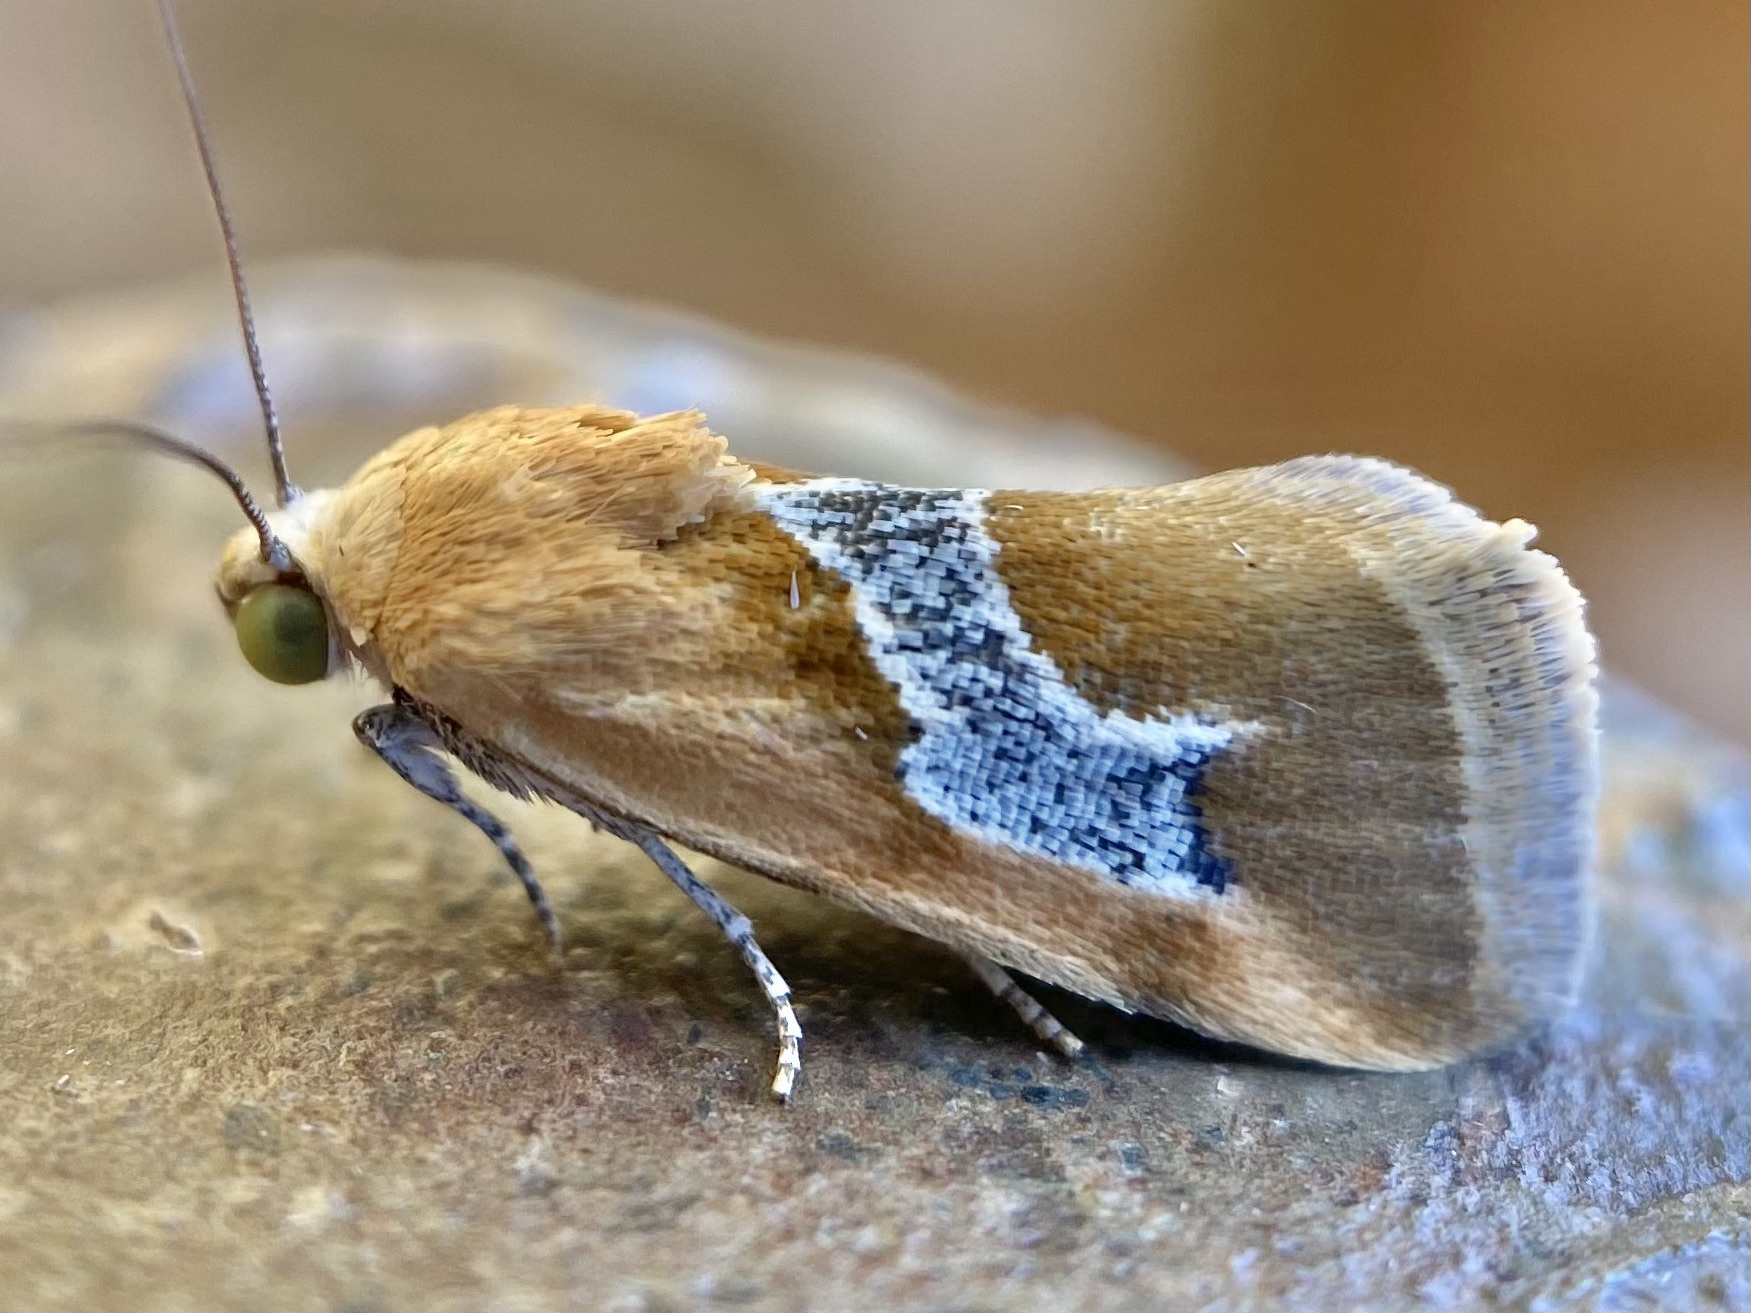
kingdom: Animalia
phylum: Arthropoda
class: Insecta
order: Lepidoptera
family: Noctuidae
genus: Ponometia
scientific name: Ponometia venustula
